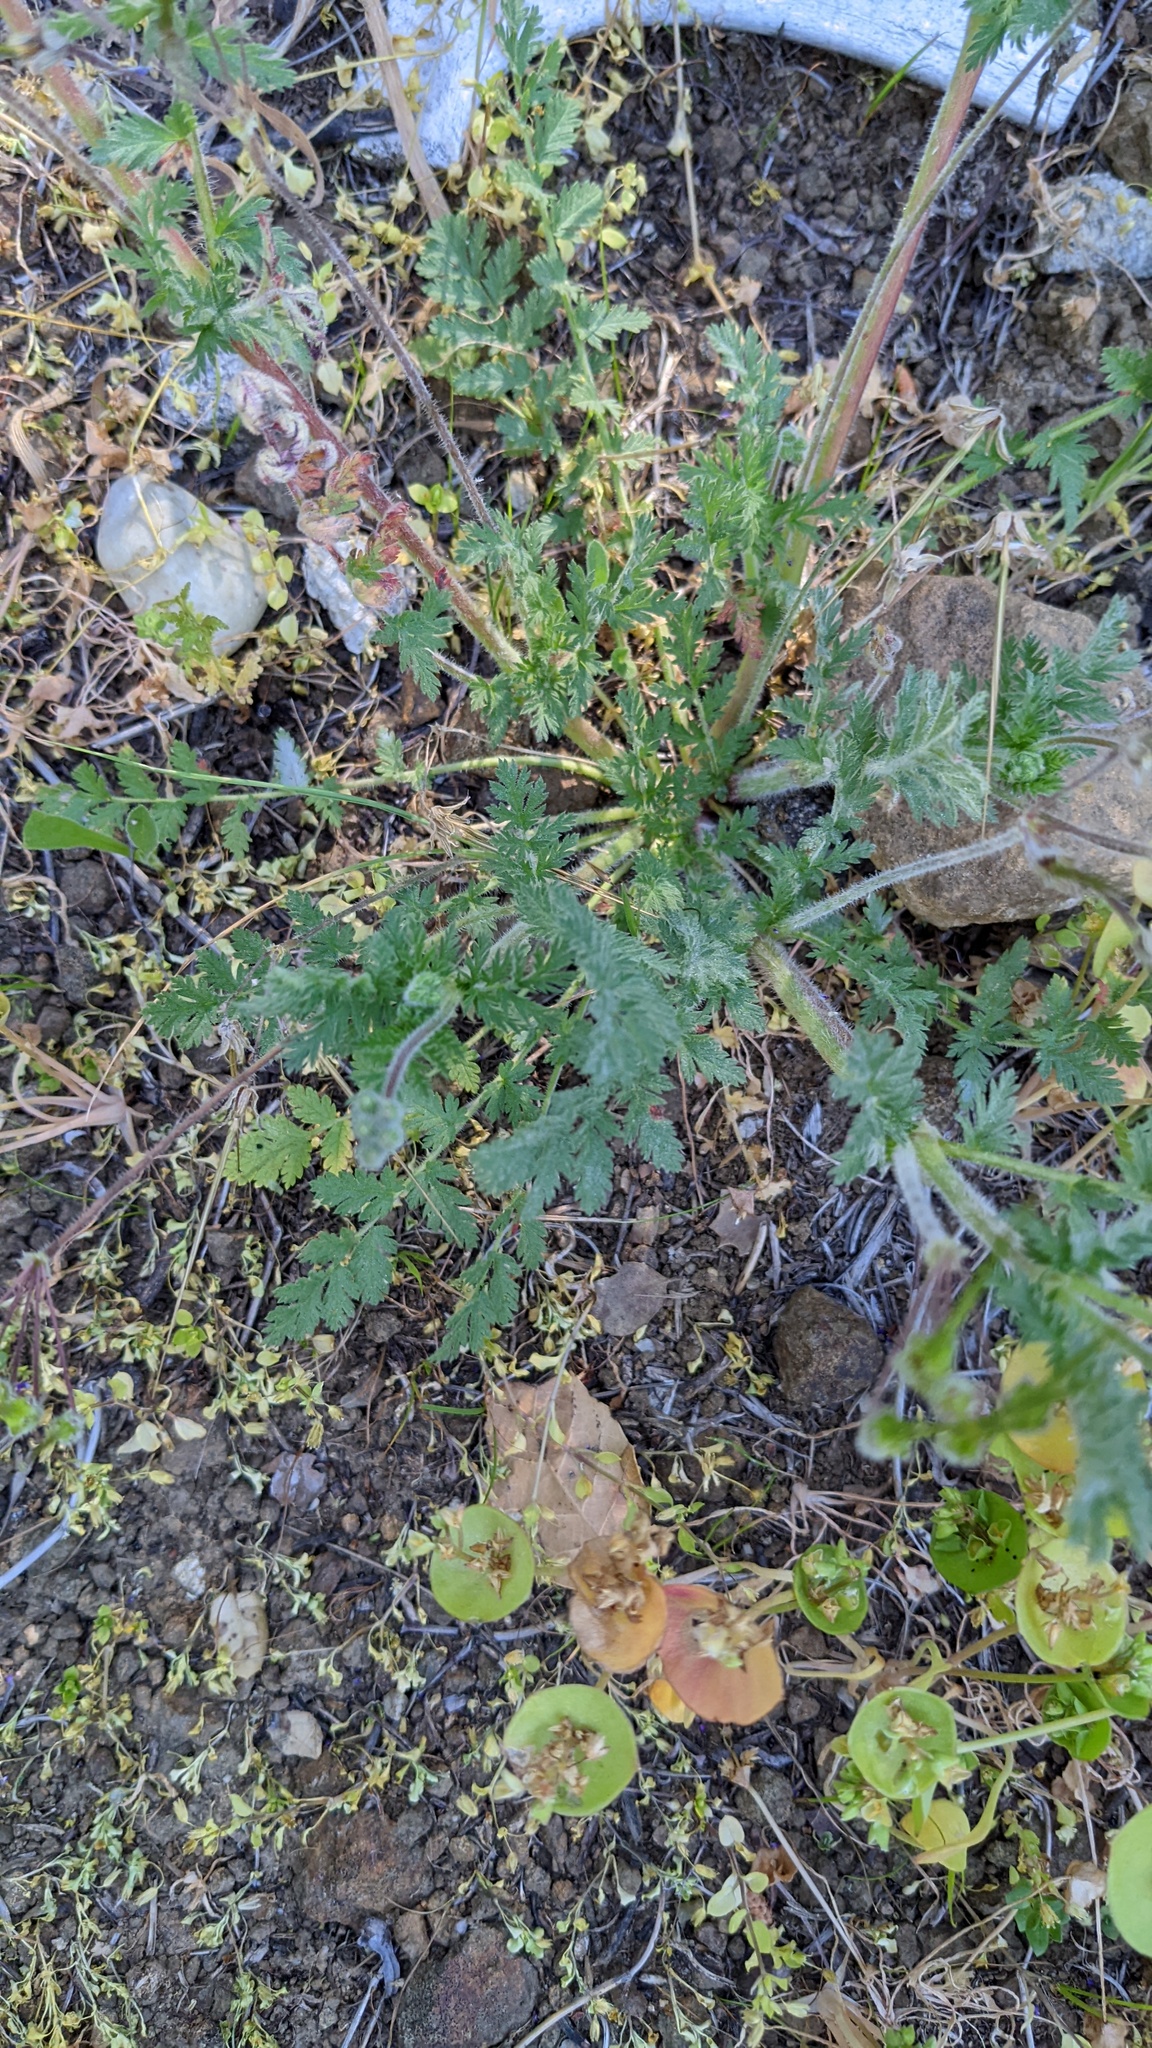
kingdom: Plantae
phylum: Tracheophyta
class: Magnoliopsida
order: Geraniales
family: Geraniaceae
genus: Erodium
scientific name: Erodium cicutarium
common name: Common stork's-bill
